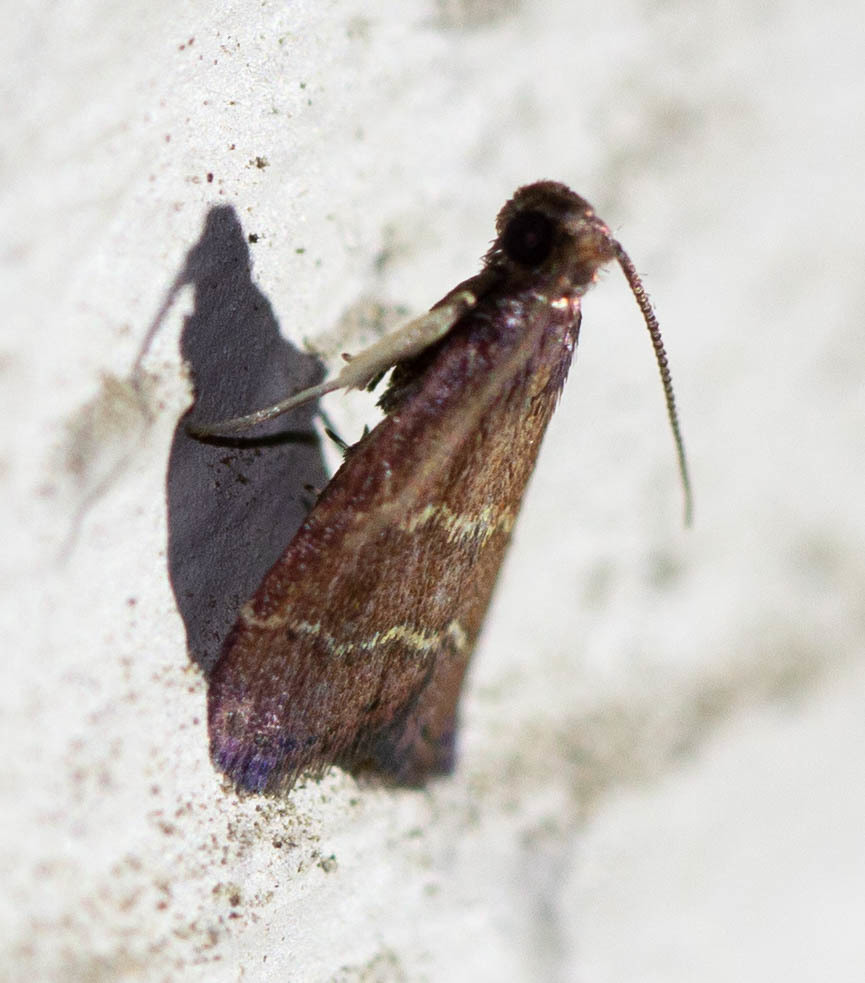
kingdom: Animalia
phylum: Arthropoda
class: Insecta
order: Lepidoptera
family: Pyralidae
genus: Arta
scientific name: Arta
